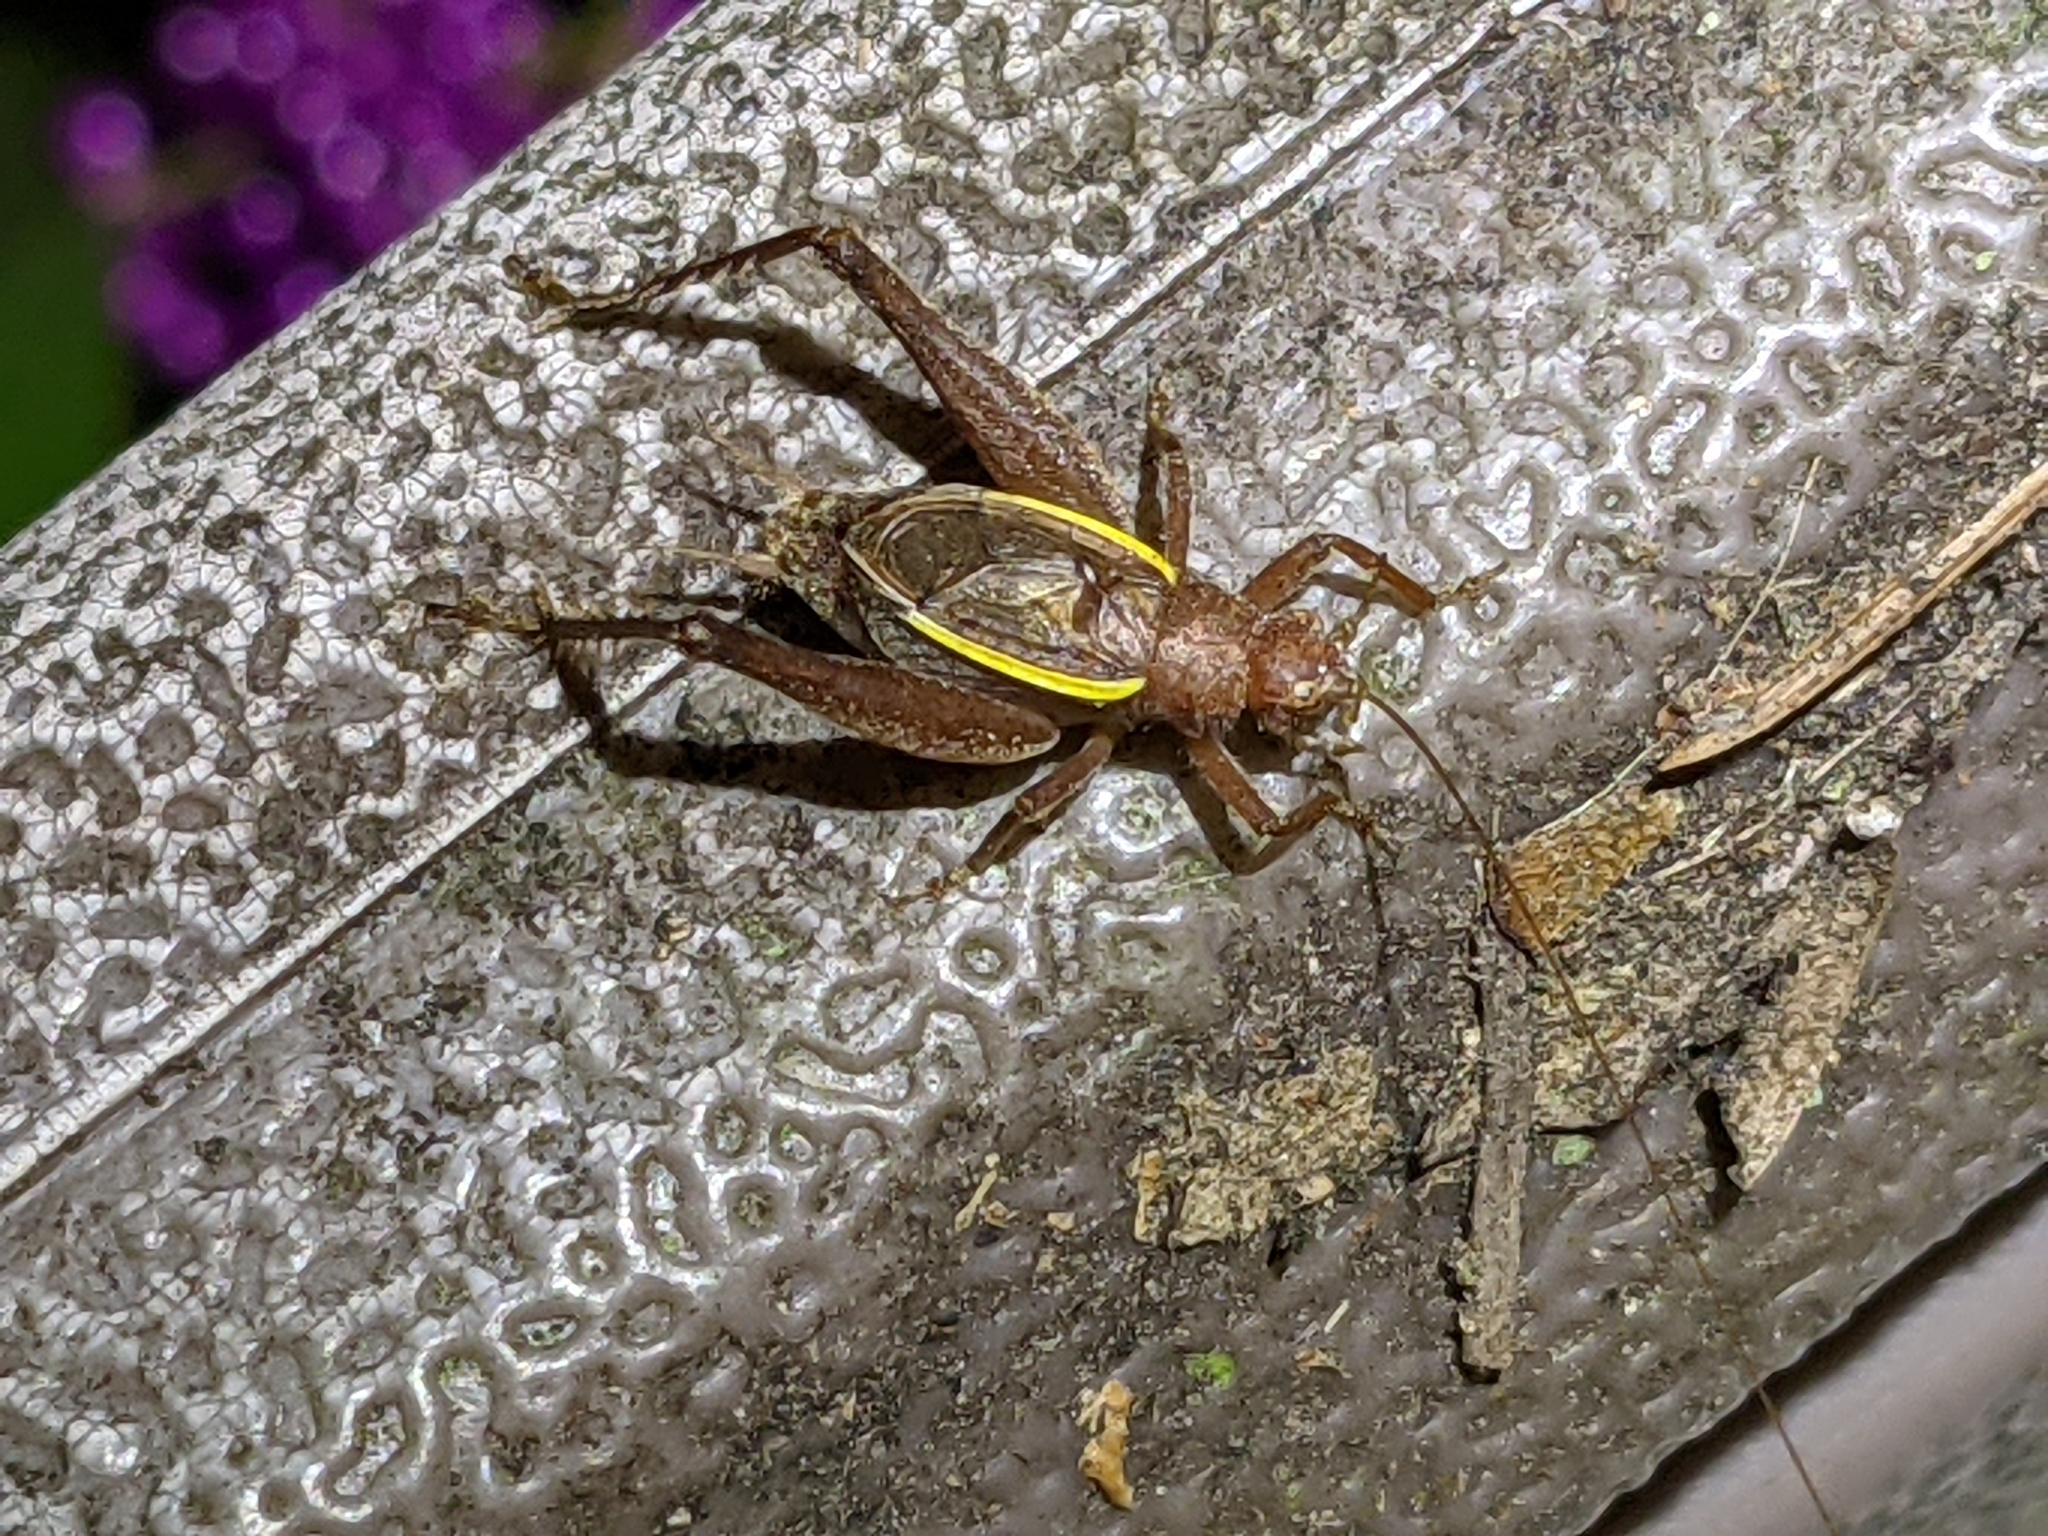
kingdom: Animalia
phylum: Arthropoda
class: Insecta
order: Orthoptera
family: Gryllidae
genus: Hapithus
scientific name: Hapithus agitator
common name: Restless bush cricket
